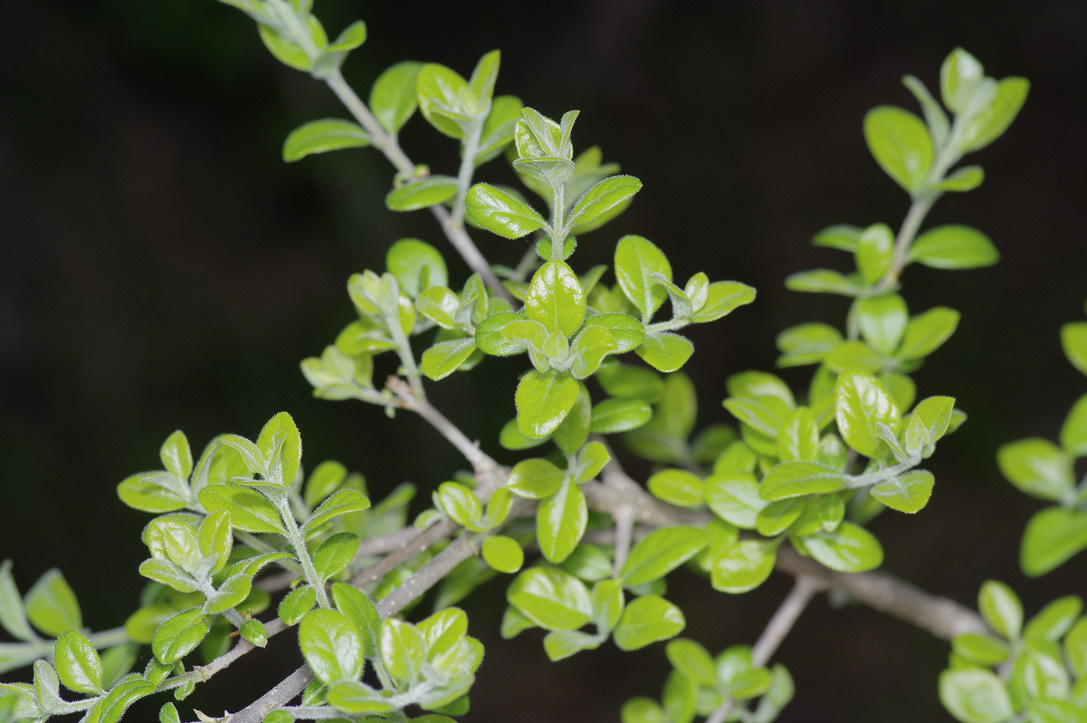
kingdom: Plantae
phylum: Tracheophyta
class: Magnoliopsida
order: Ericales
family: Ebenaceae
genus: Diospyros
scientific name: Diospyros texana
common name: Texas persimmon
